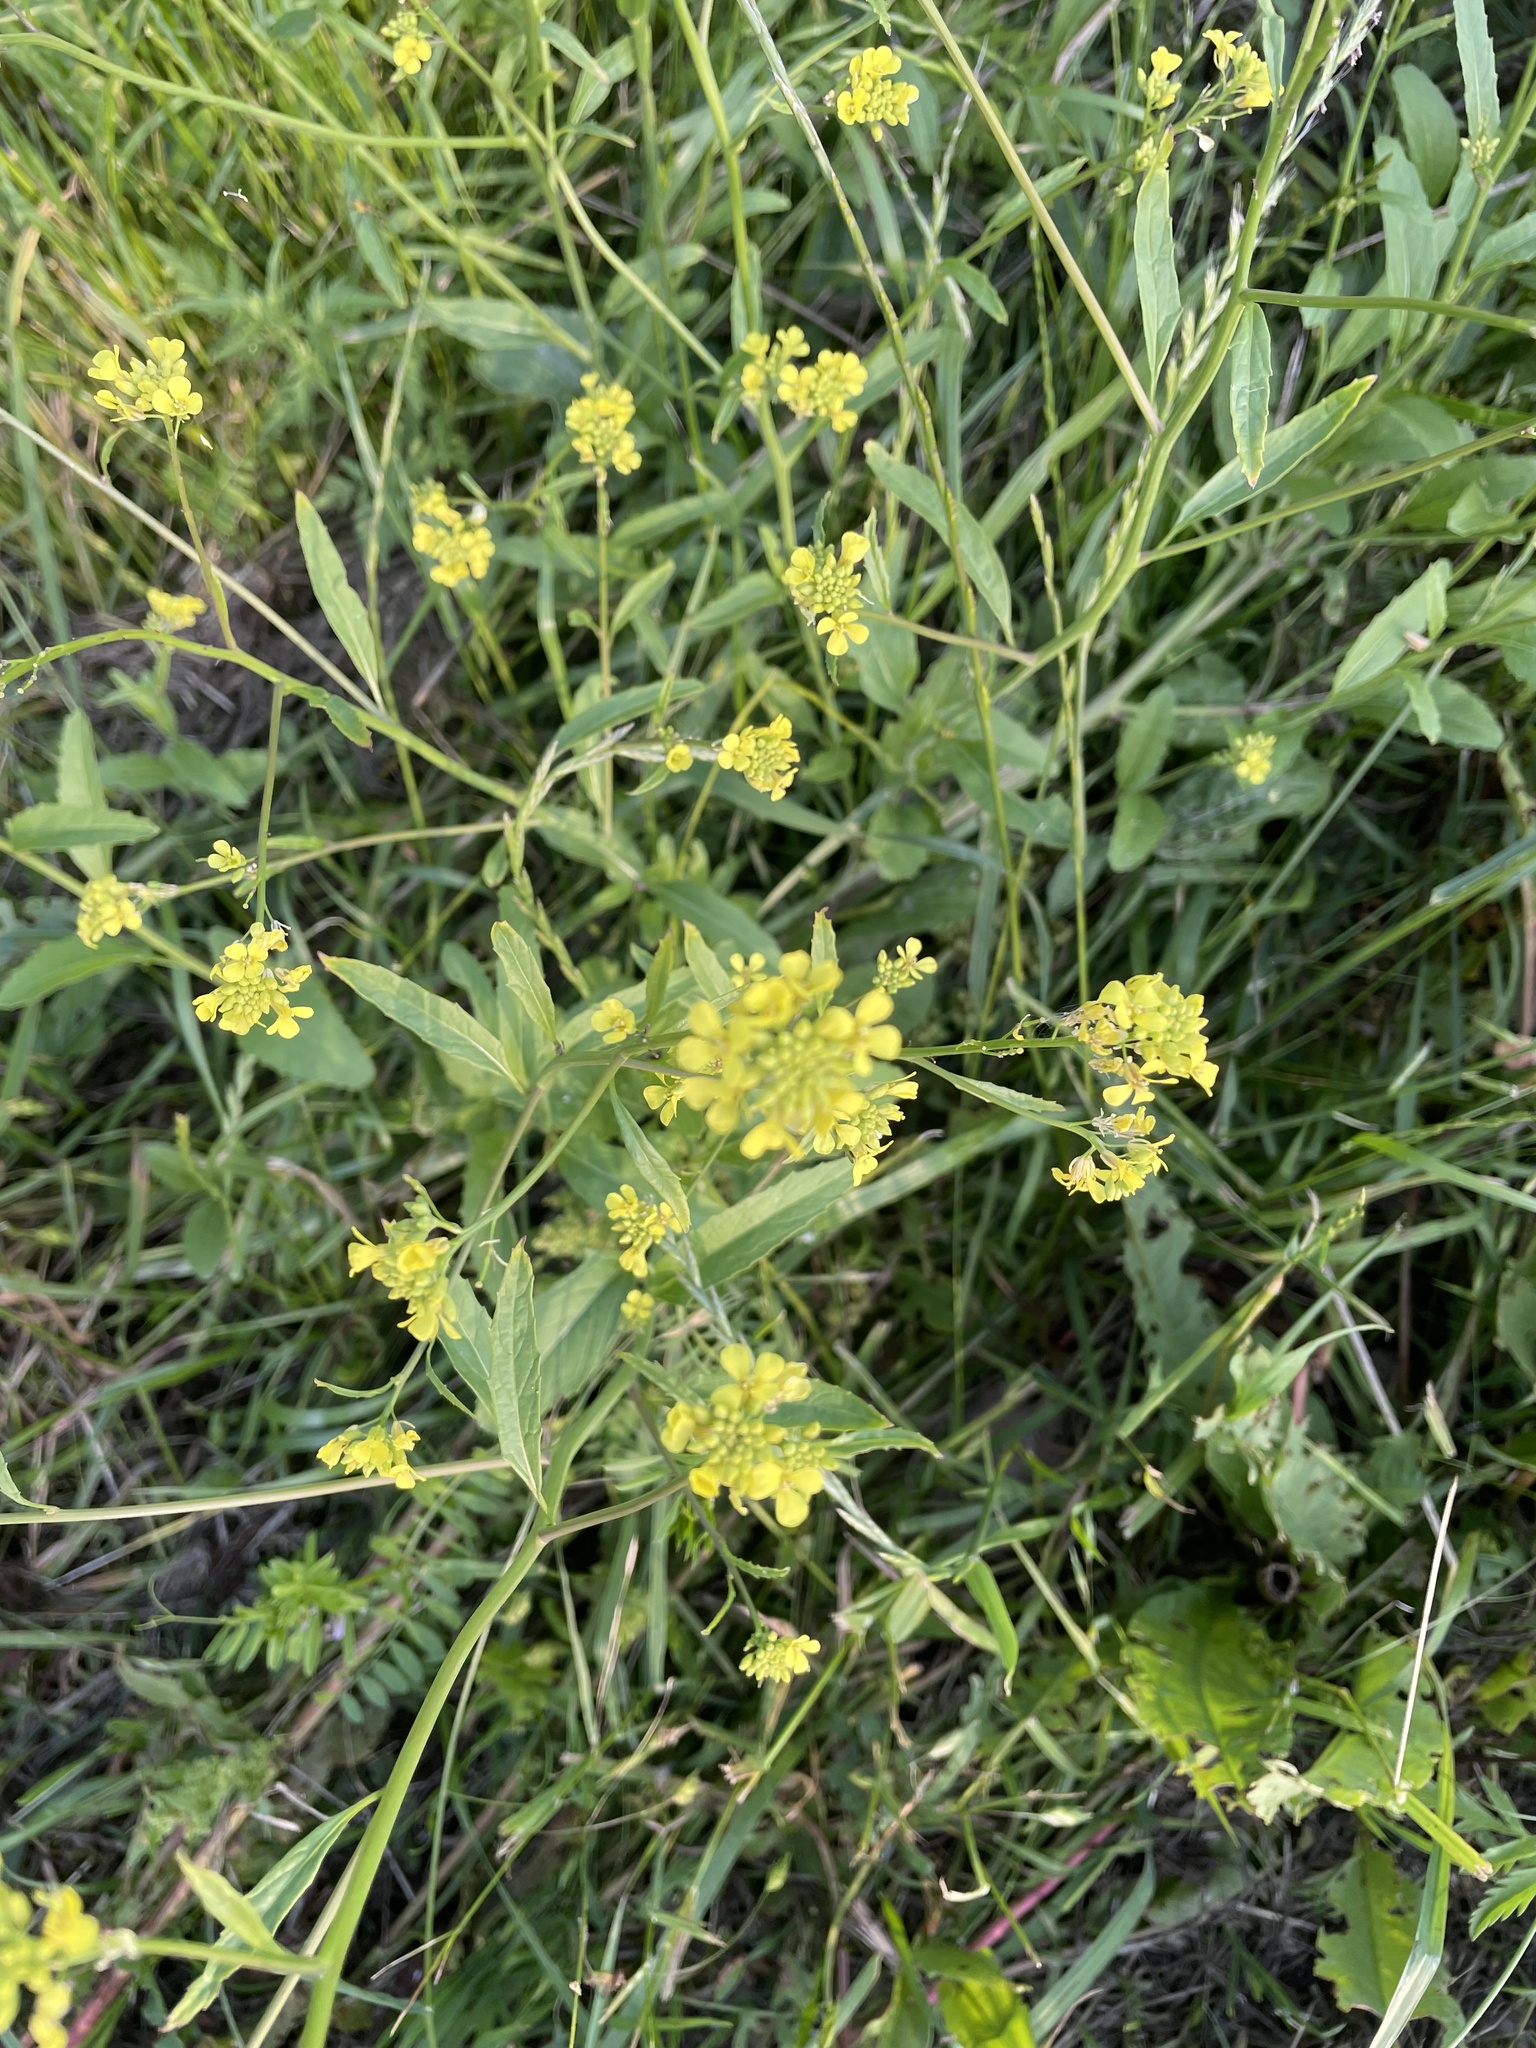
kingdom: Plantae
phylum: Tracheophyta
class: Magnoliopsida
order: Brassicales
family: Brassicaceae
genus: Rapistrum
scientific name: Rapistrum rugosum
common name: Annual bastardcabbage
